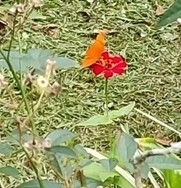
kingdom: Animalia
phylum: Arthropoda
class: Insecta
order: Lepidoptera
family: Nymphalidae
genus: Dryas
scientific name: Dryas iulia
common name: Flambeau
